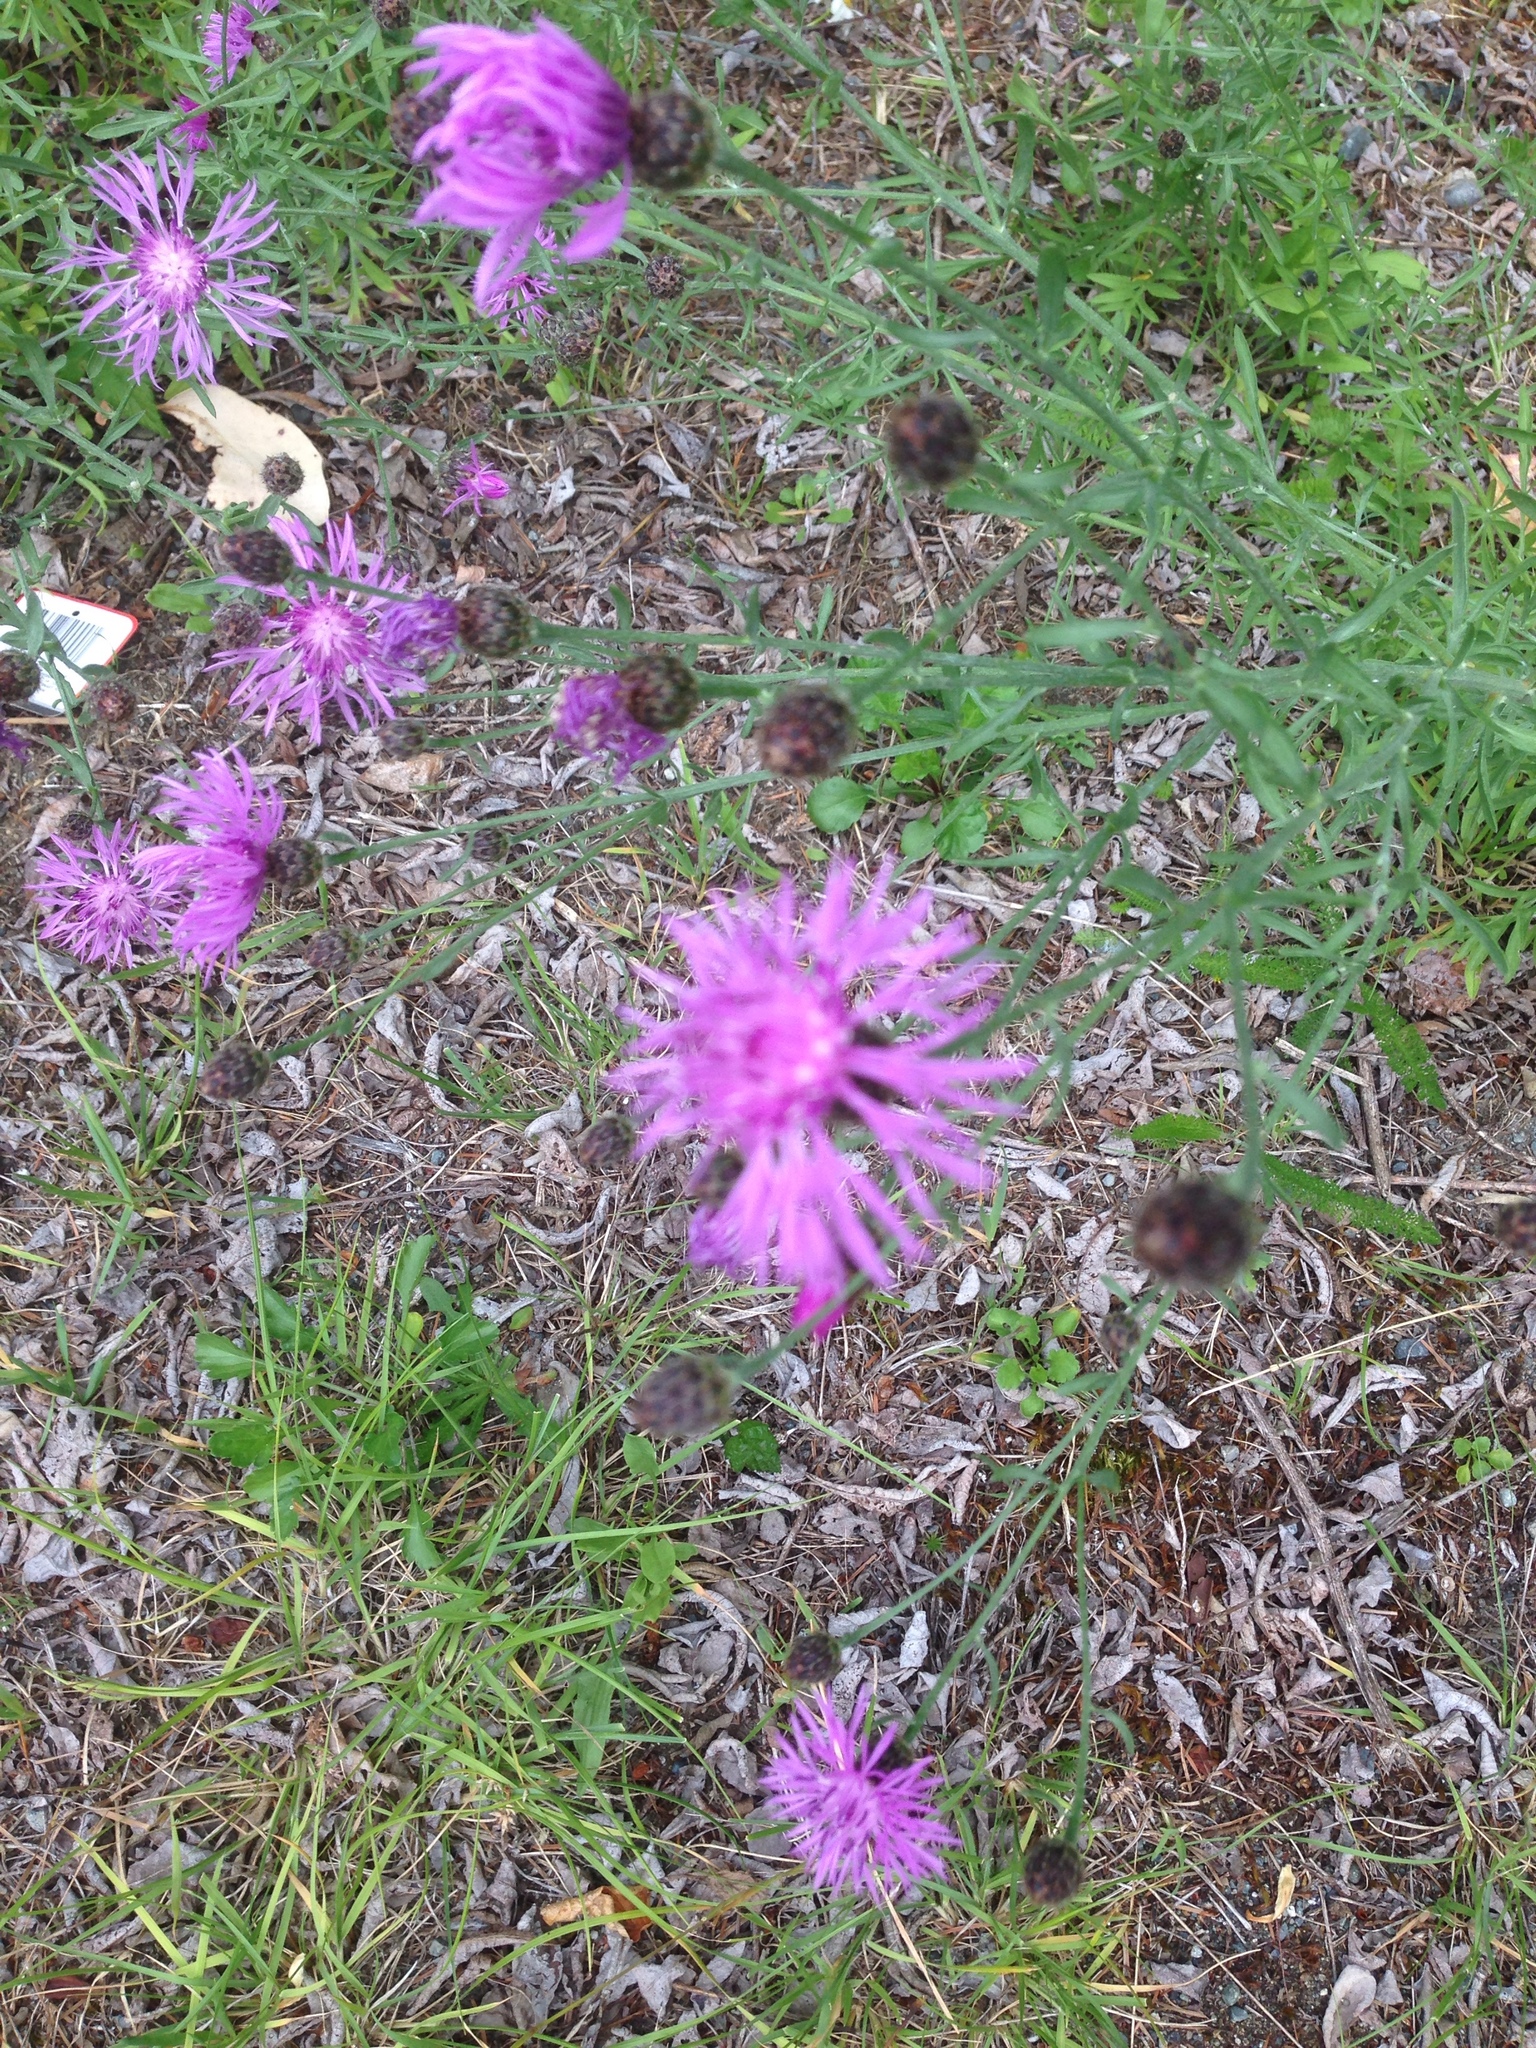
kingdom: Plantae
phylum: Tracheophyta
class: Magnoliopsida
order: Asterales
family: Asteraceae
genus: Centaurea
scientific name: Centaurea stoebe
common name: Spotted knapweed
